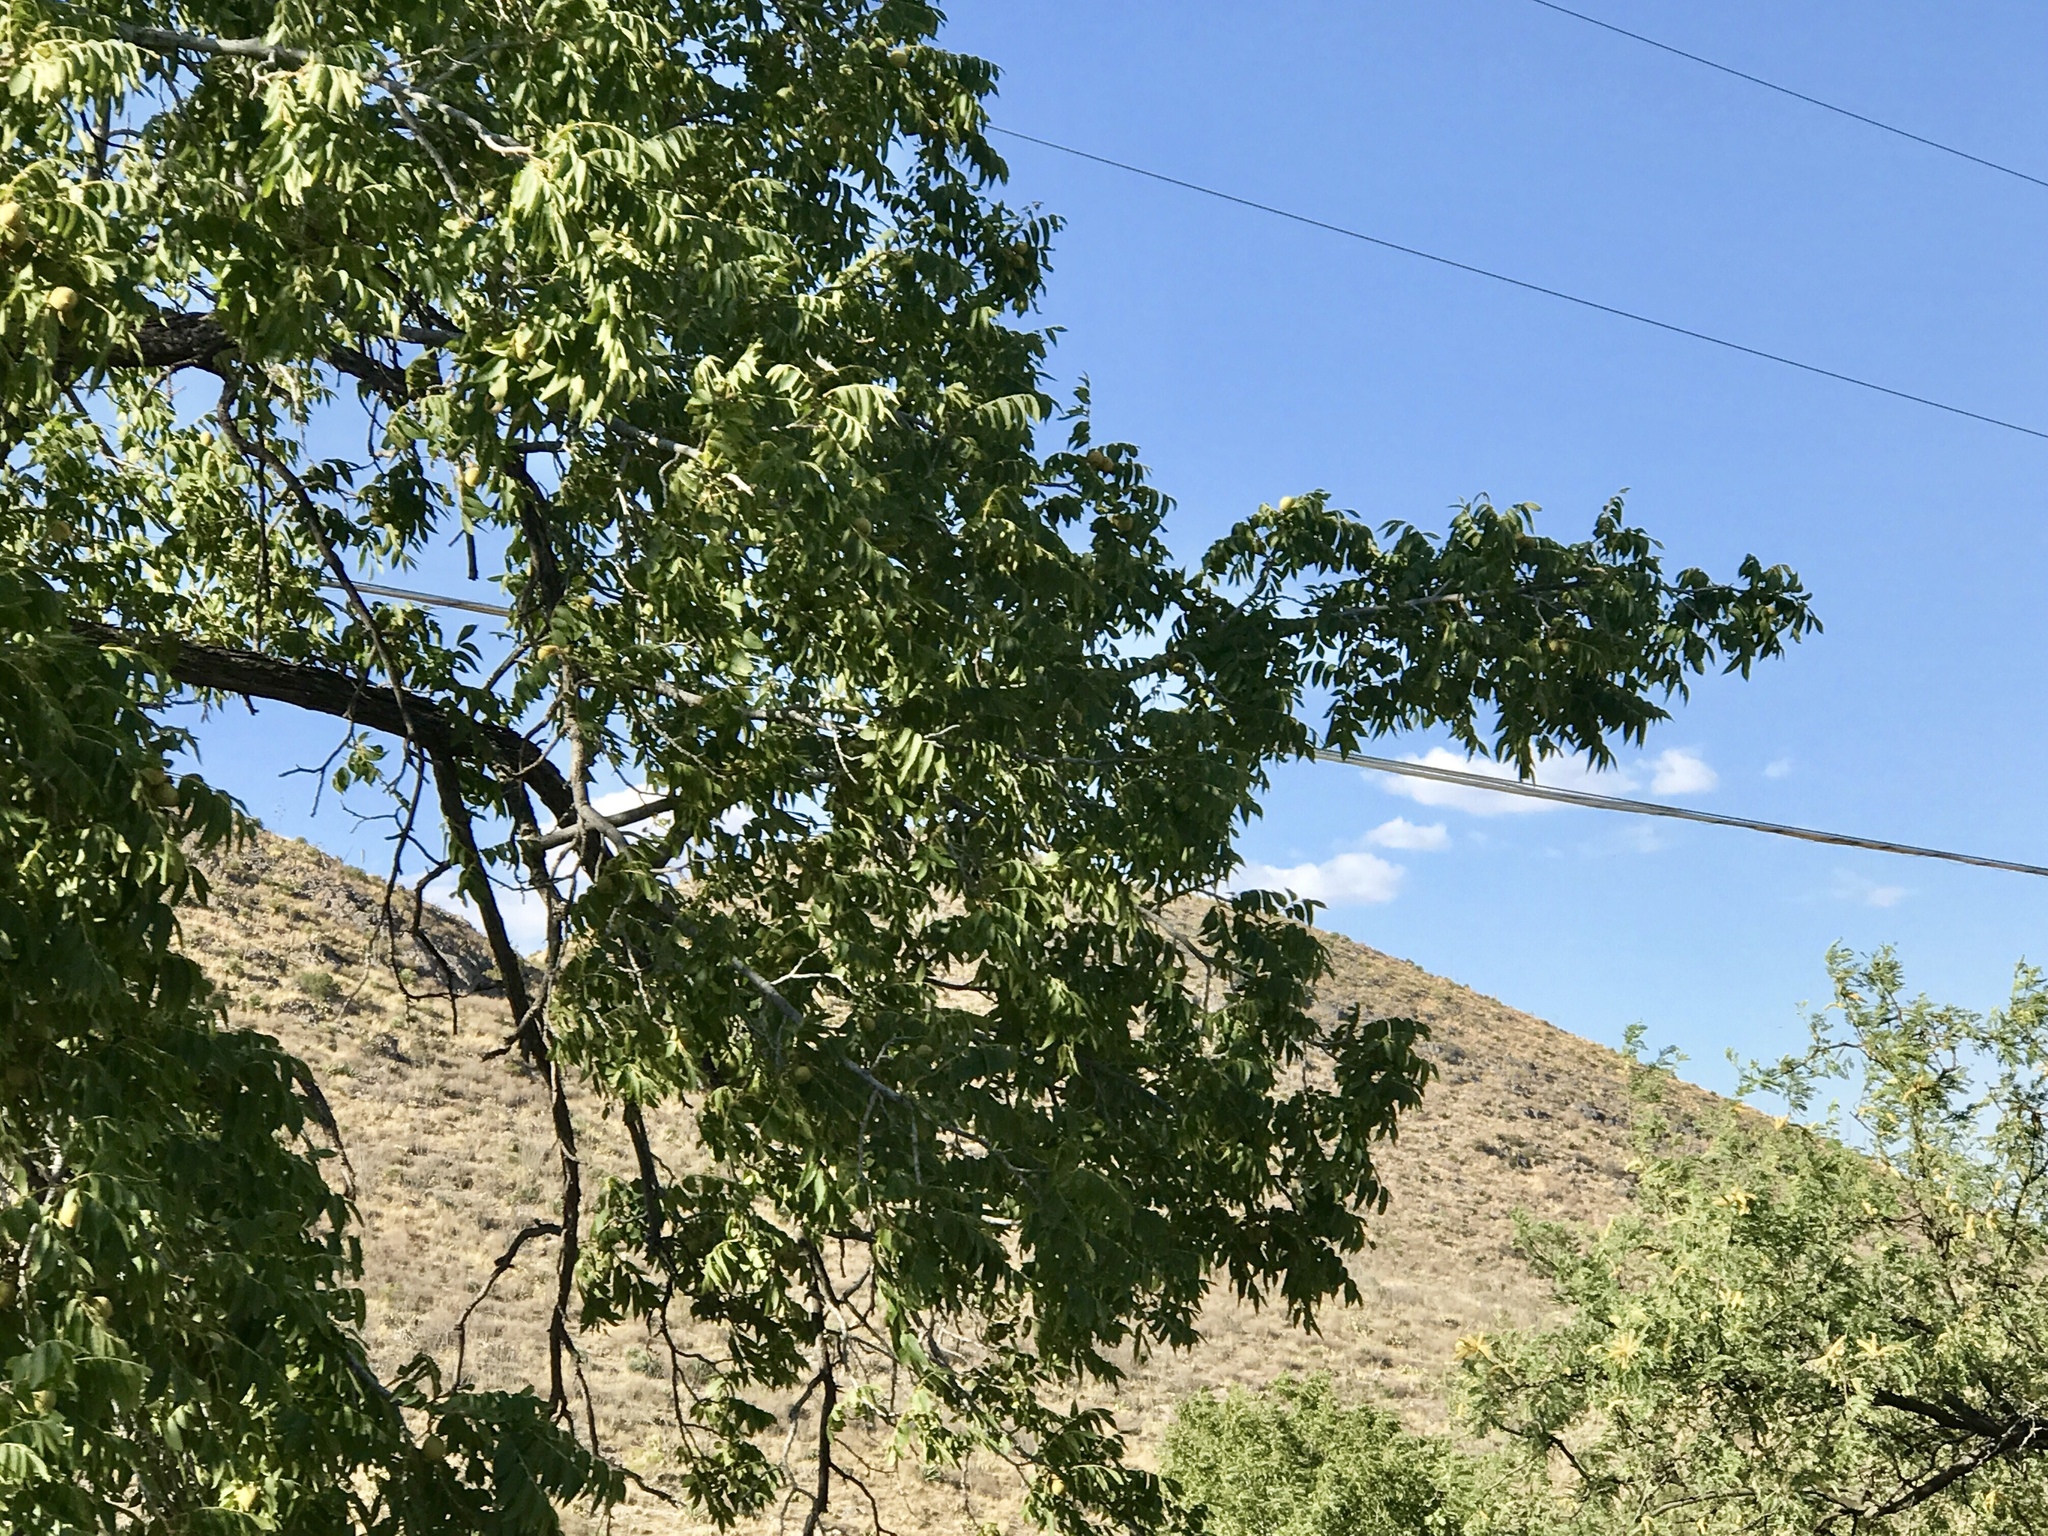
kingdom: Plantae
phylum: Tracheophyta
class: Magnoliopsida
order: Fagales
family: Juglandaceae
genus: Juglans
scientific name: Juglans major
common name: Arizona walnut
